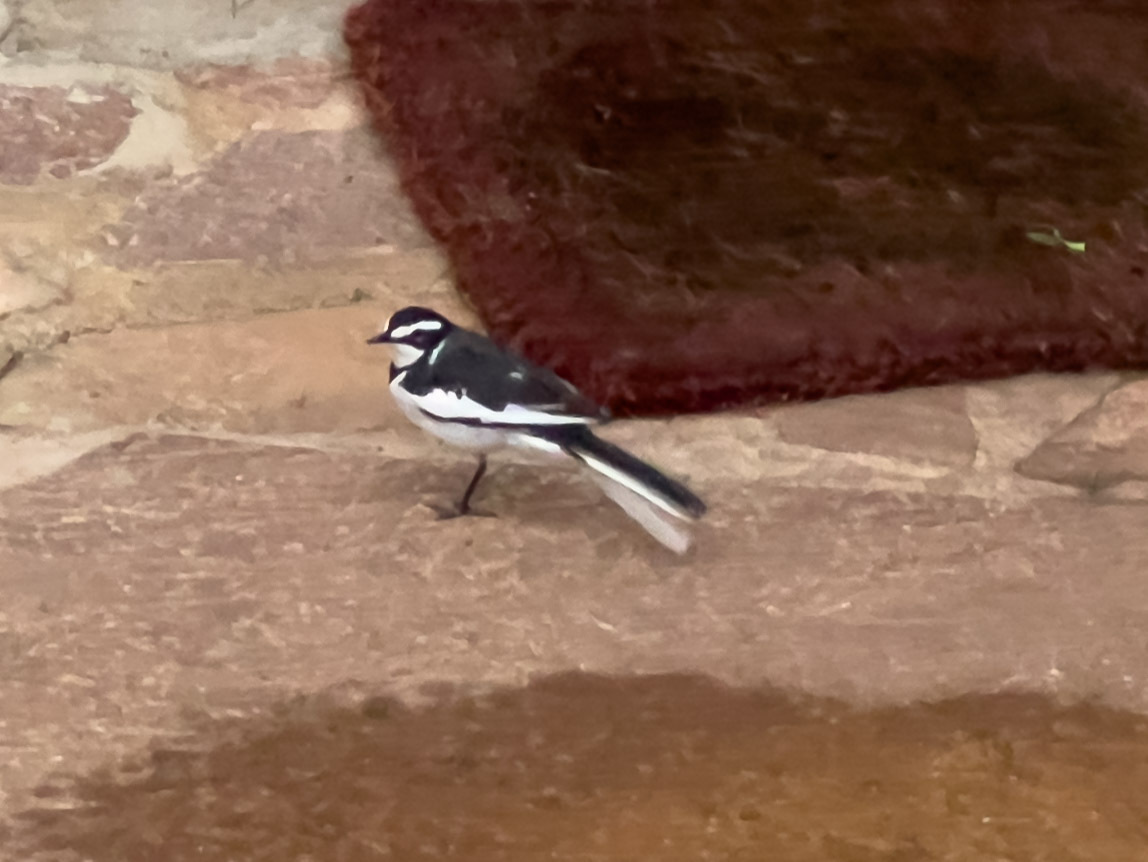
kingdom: Animalia
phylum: Chordata
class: Aves
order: Passeriformes
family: Motacillidae
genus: Motacilla
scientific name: Motacilla aguimp
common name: African pied wagtail
